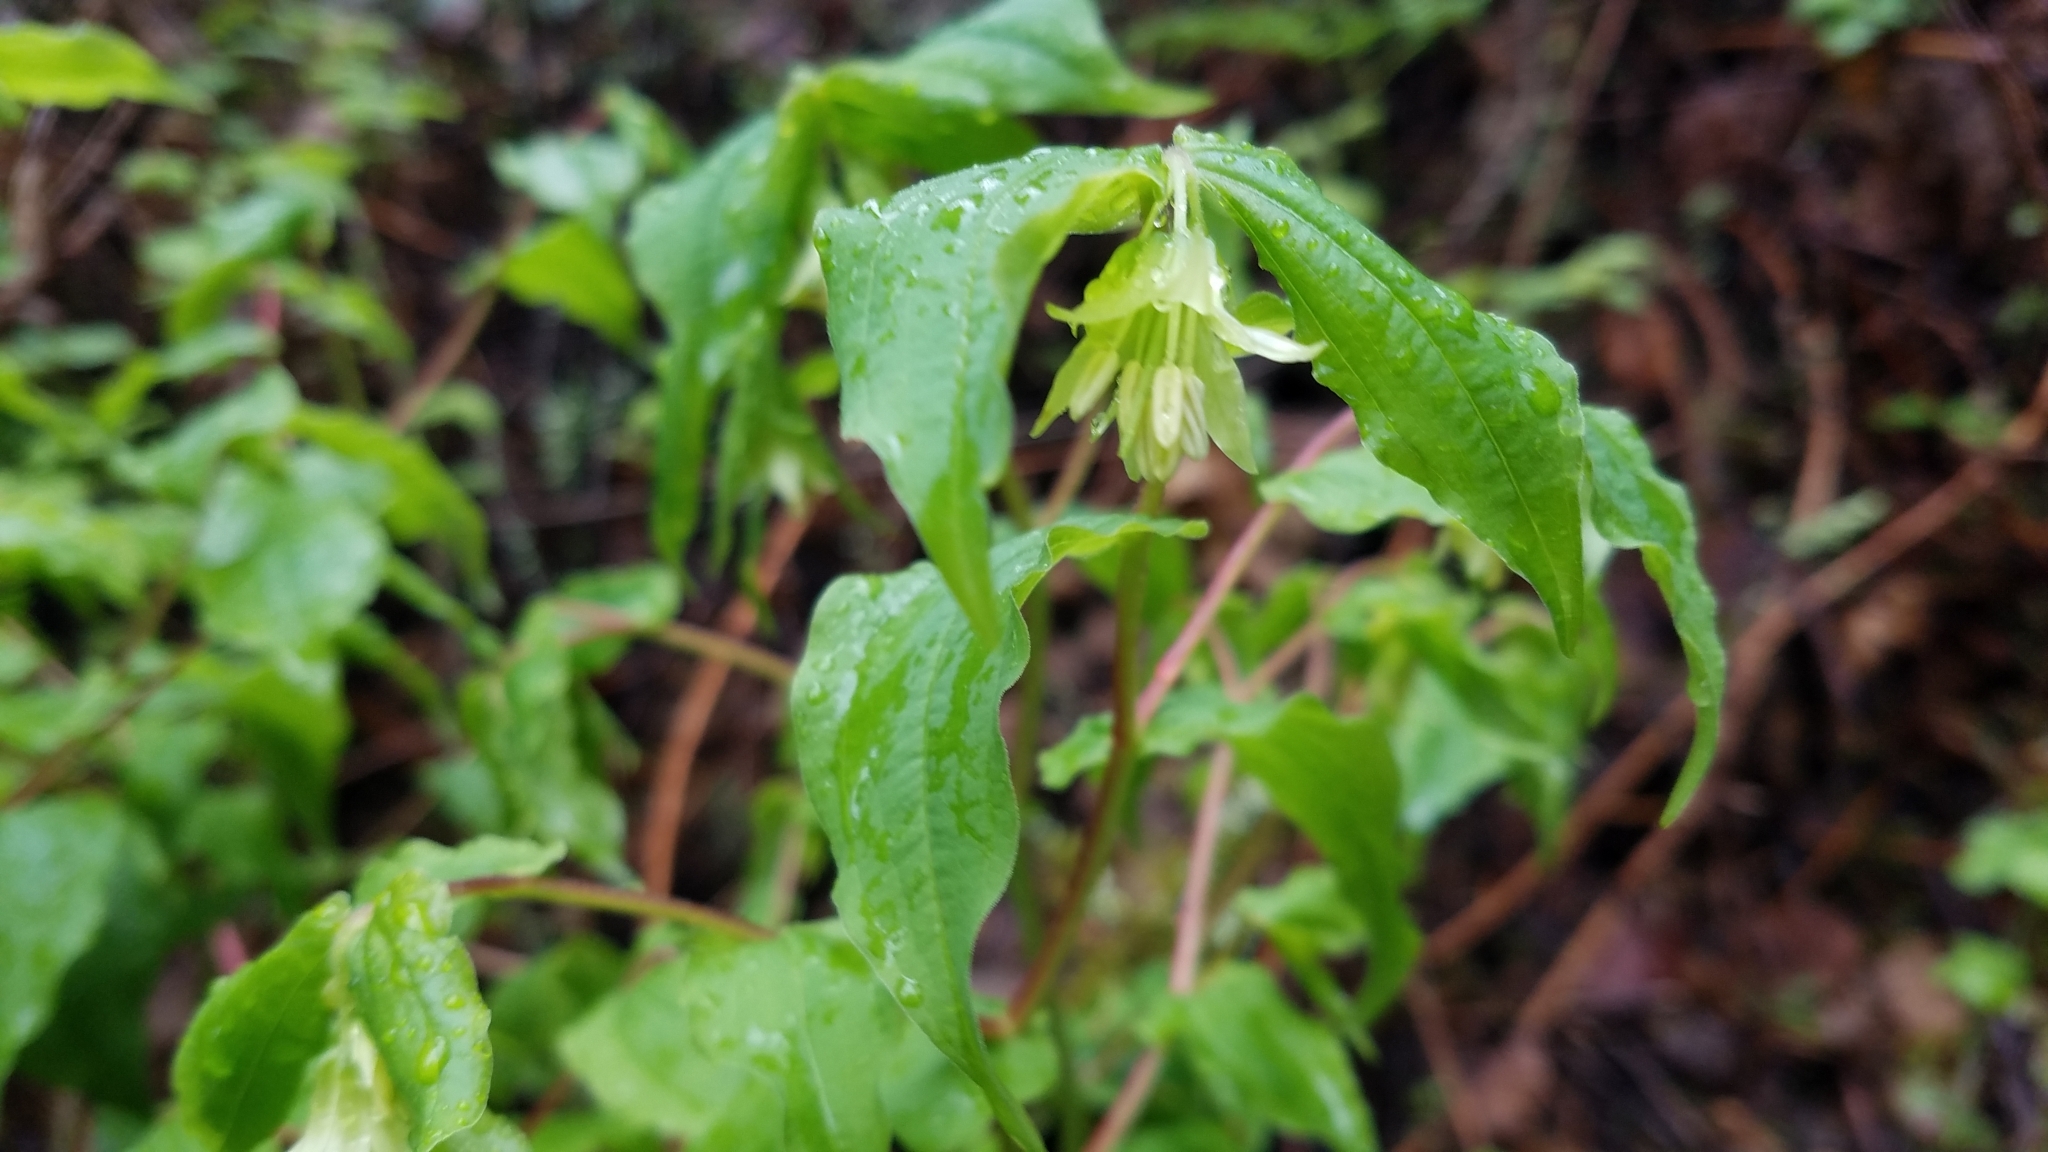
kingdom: Plantae
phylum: Tracheophyta
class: Liliopsida
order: Liliales
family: Liliaceae
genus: Prosartes
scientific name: Prosartes hookeri
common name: Fairy-bells
